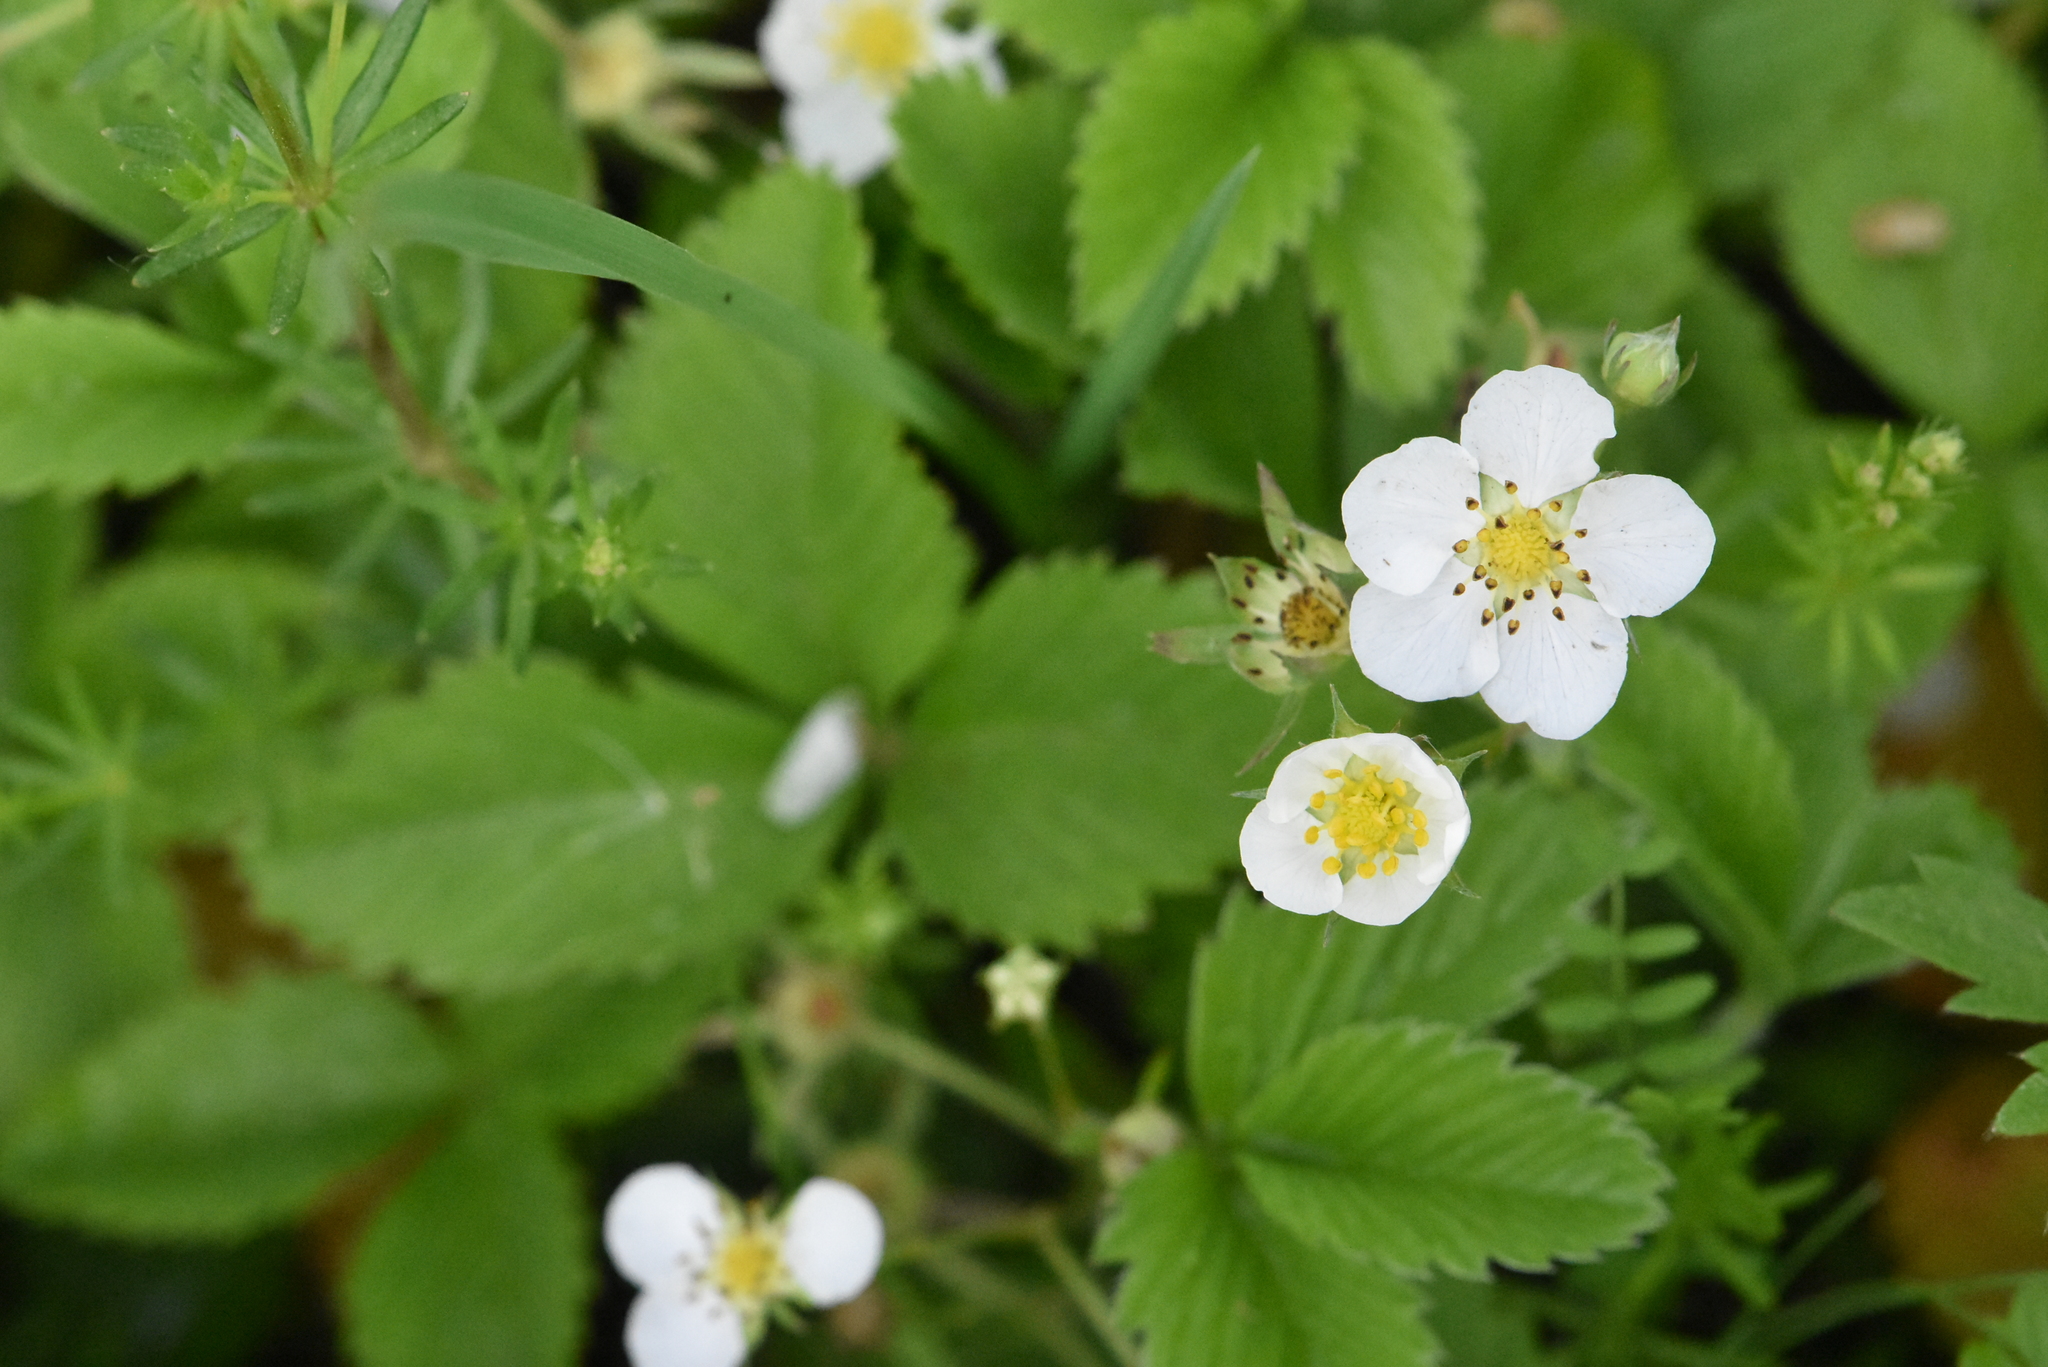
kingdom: Plantae
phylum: Tracheophyta
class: Magnoliopsida
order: Rosales
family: Rosaceae
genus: Fragaria
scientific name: Fragaria viridis
